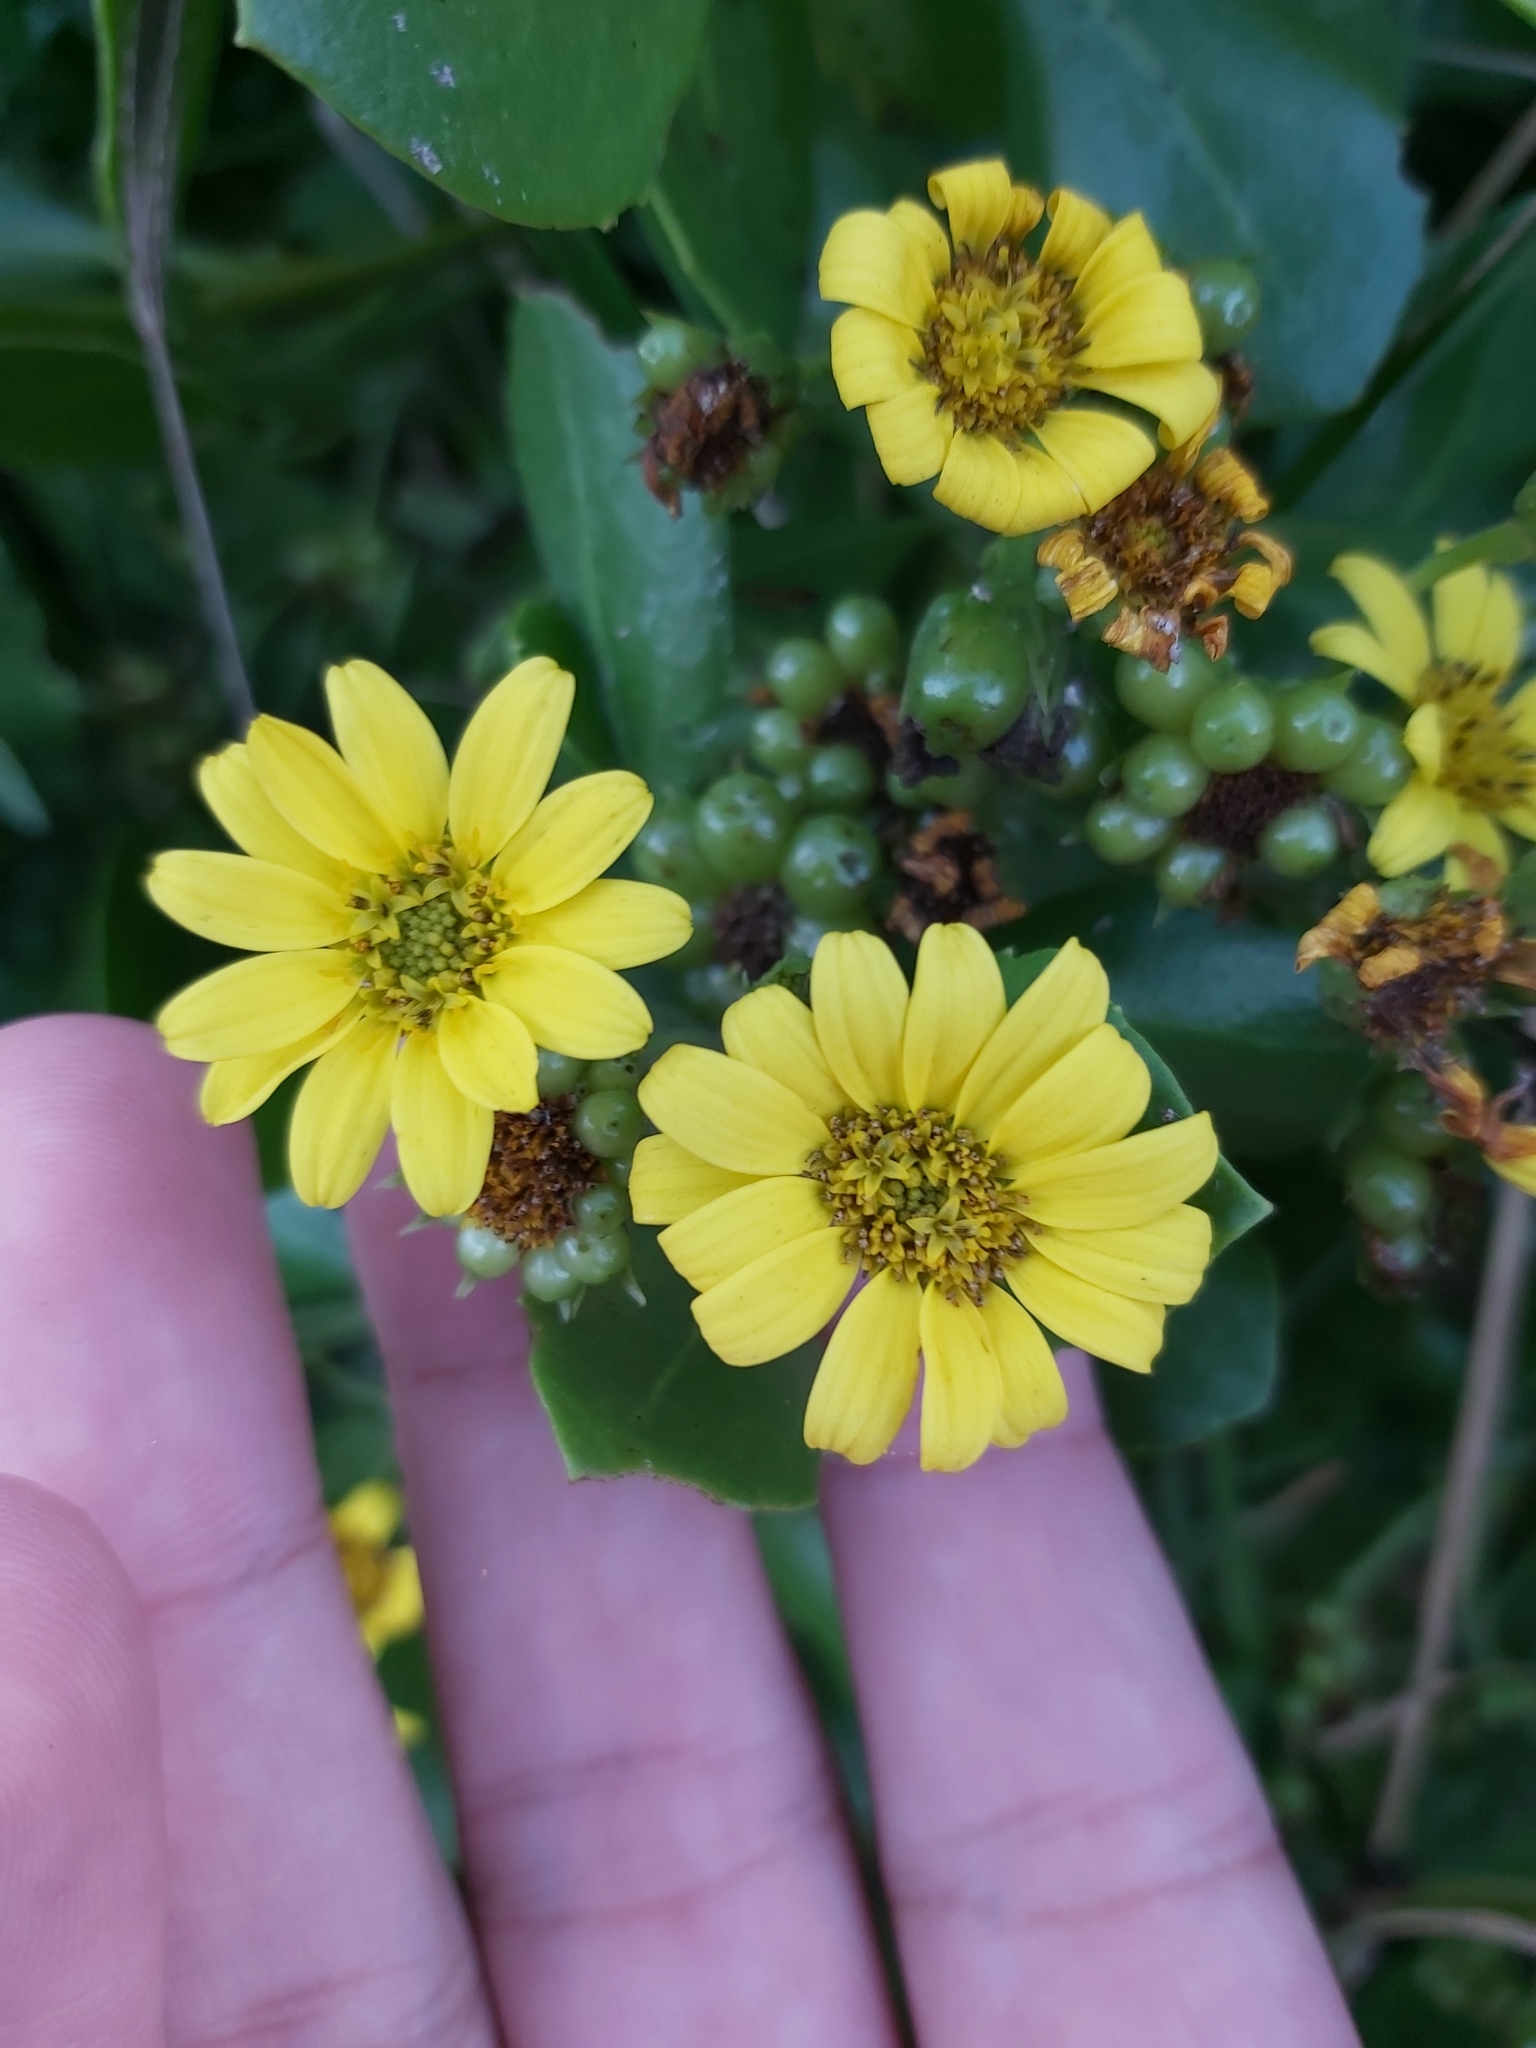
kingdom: Plantae
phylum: Tracheophyta
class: Magnoliopsida
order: Asterales
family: Asteraceae
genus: Osteospermum
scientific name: Osteospermum moniliferum
